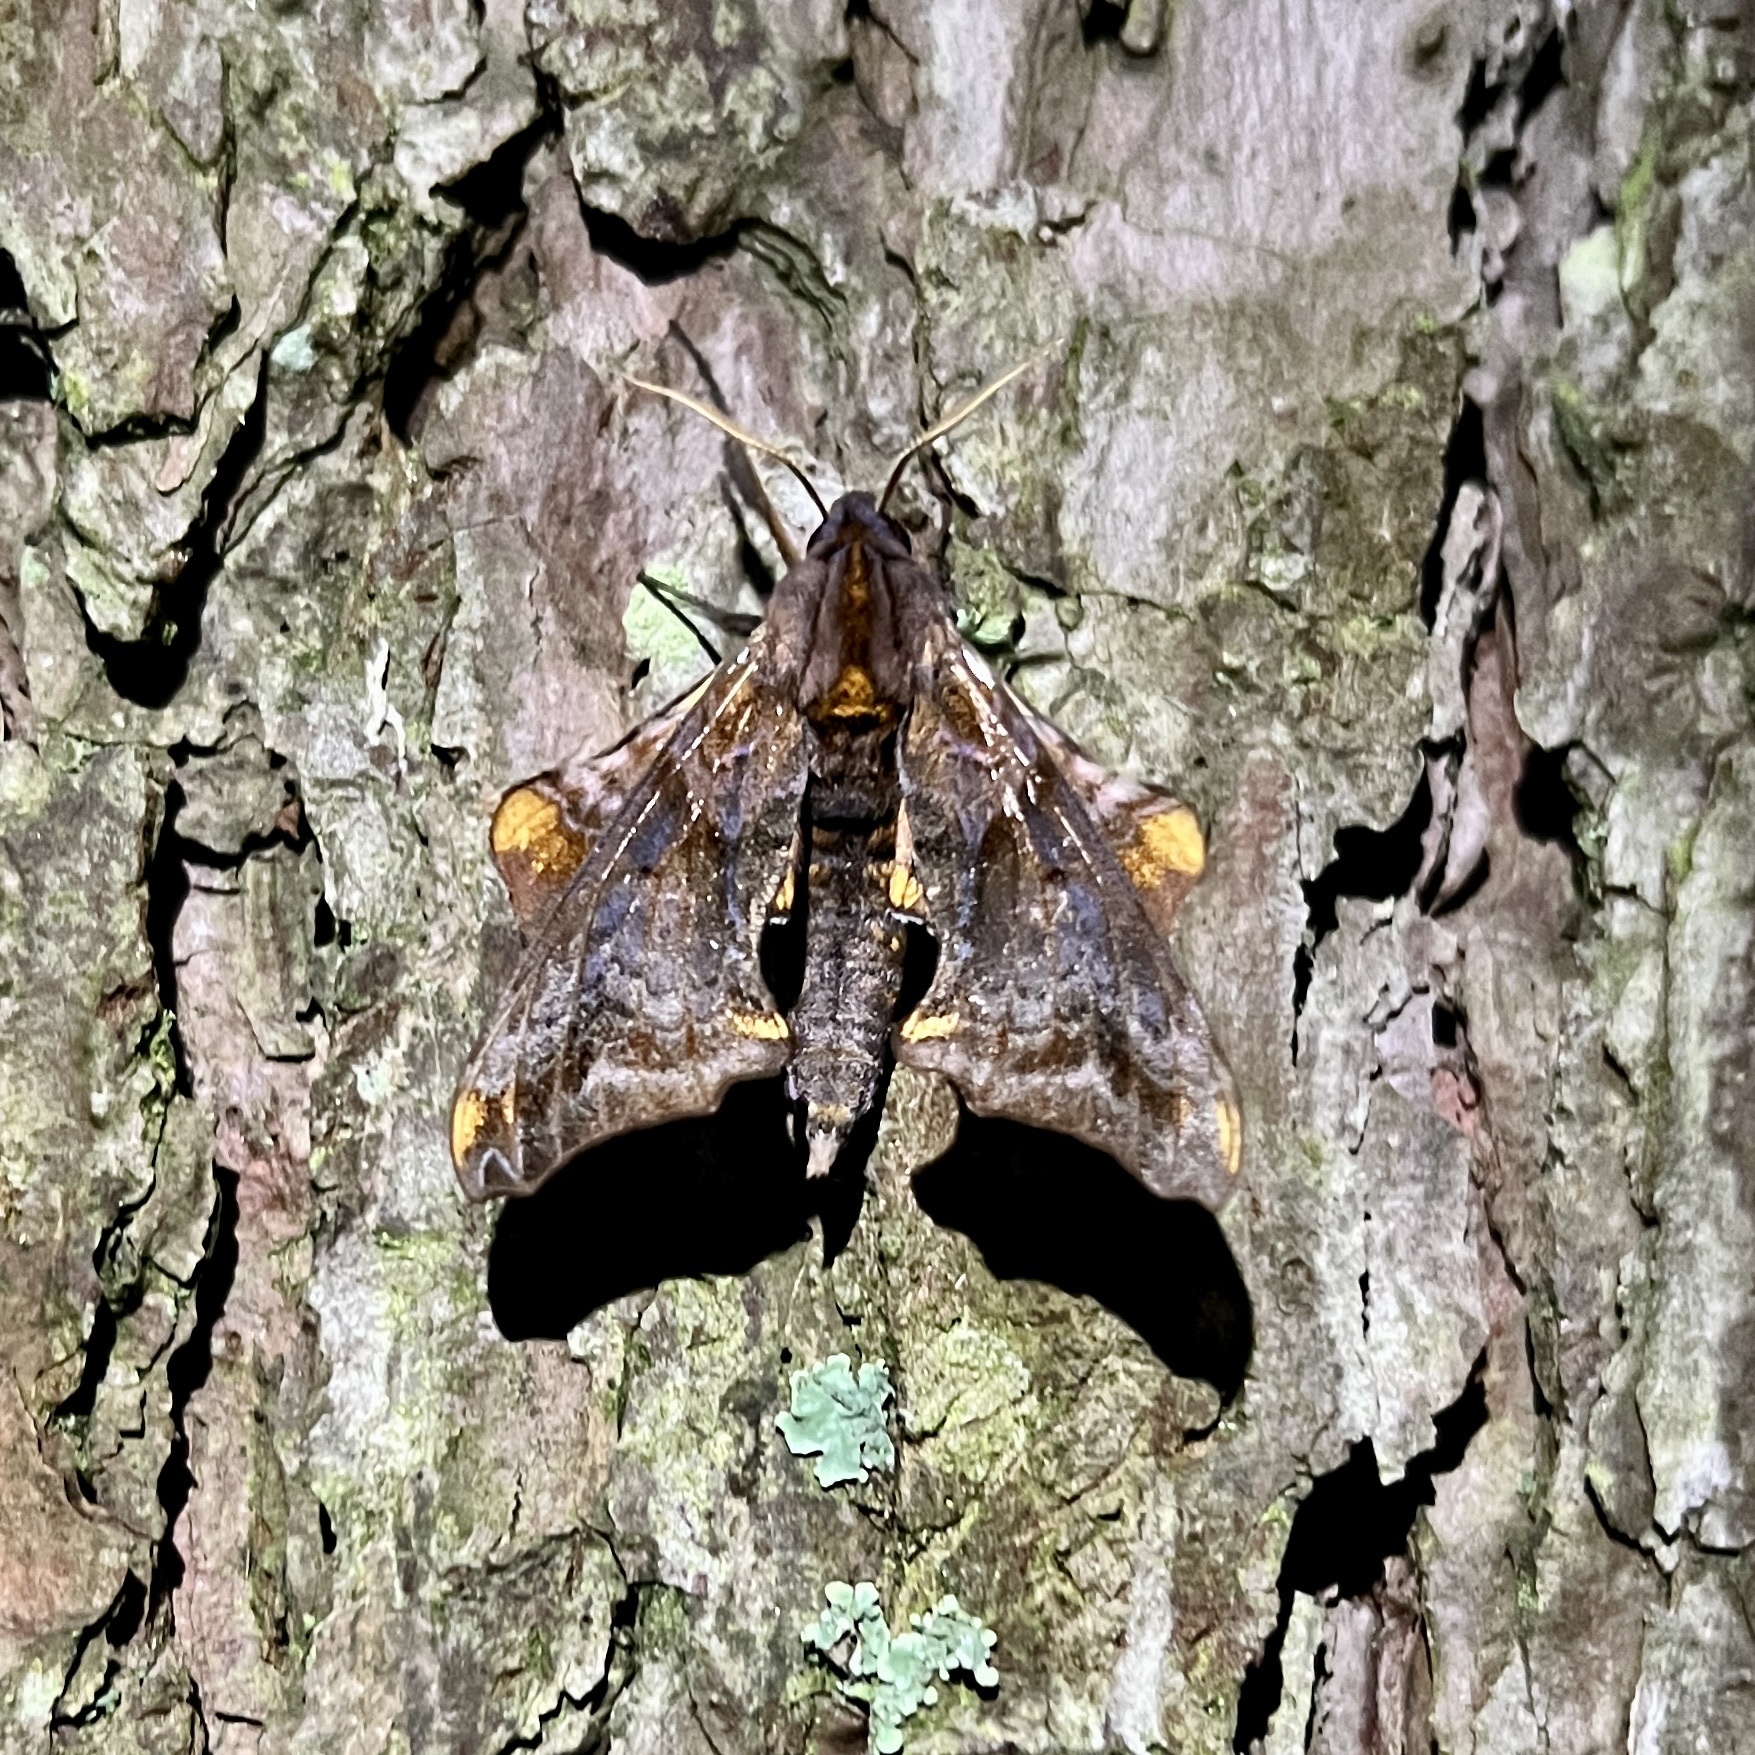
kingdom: Animalia
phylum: Arthropoda
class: Insecta
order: Lepidoptera
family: Sphingidae
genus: Paonias
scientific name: Paonias myops
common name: Small-eyed sphinx
